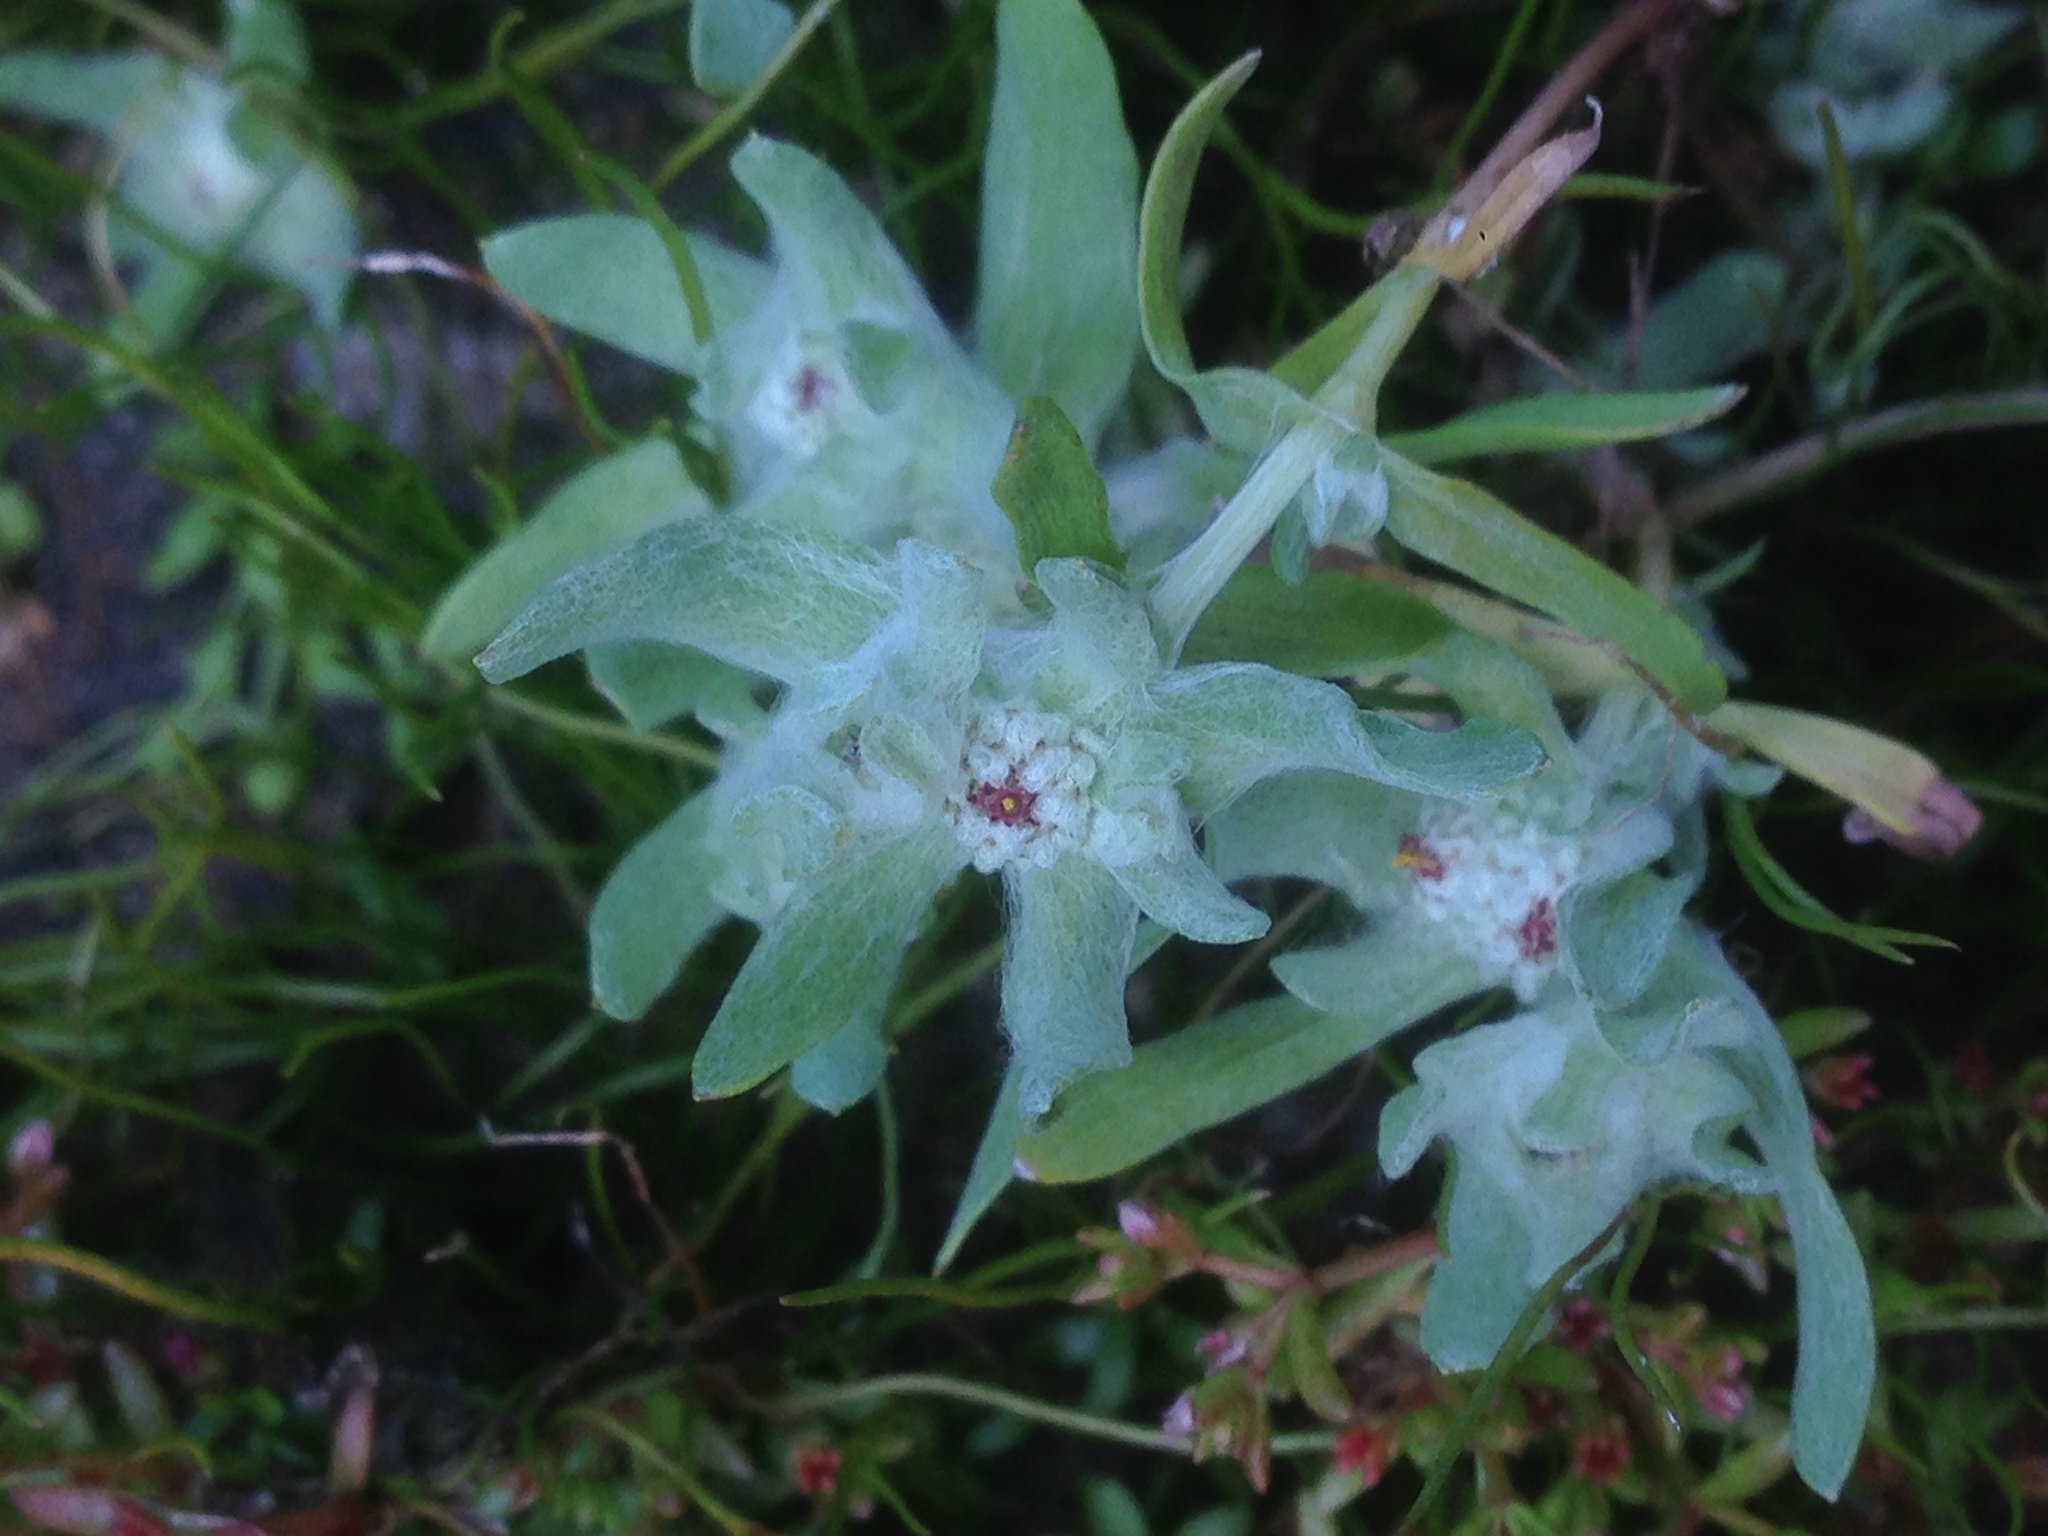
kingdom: Plantae
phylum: Tracheophyta
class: Magnoliopsida
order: Asterales
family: Asteraceae
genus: Psilocarphus
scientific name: Psilocarphus brevissimus
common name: Dwarf woollyheads
